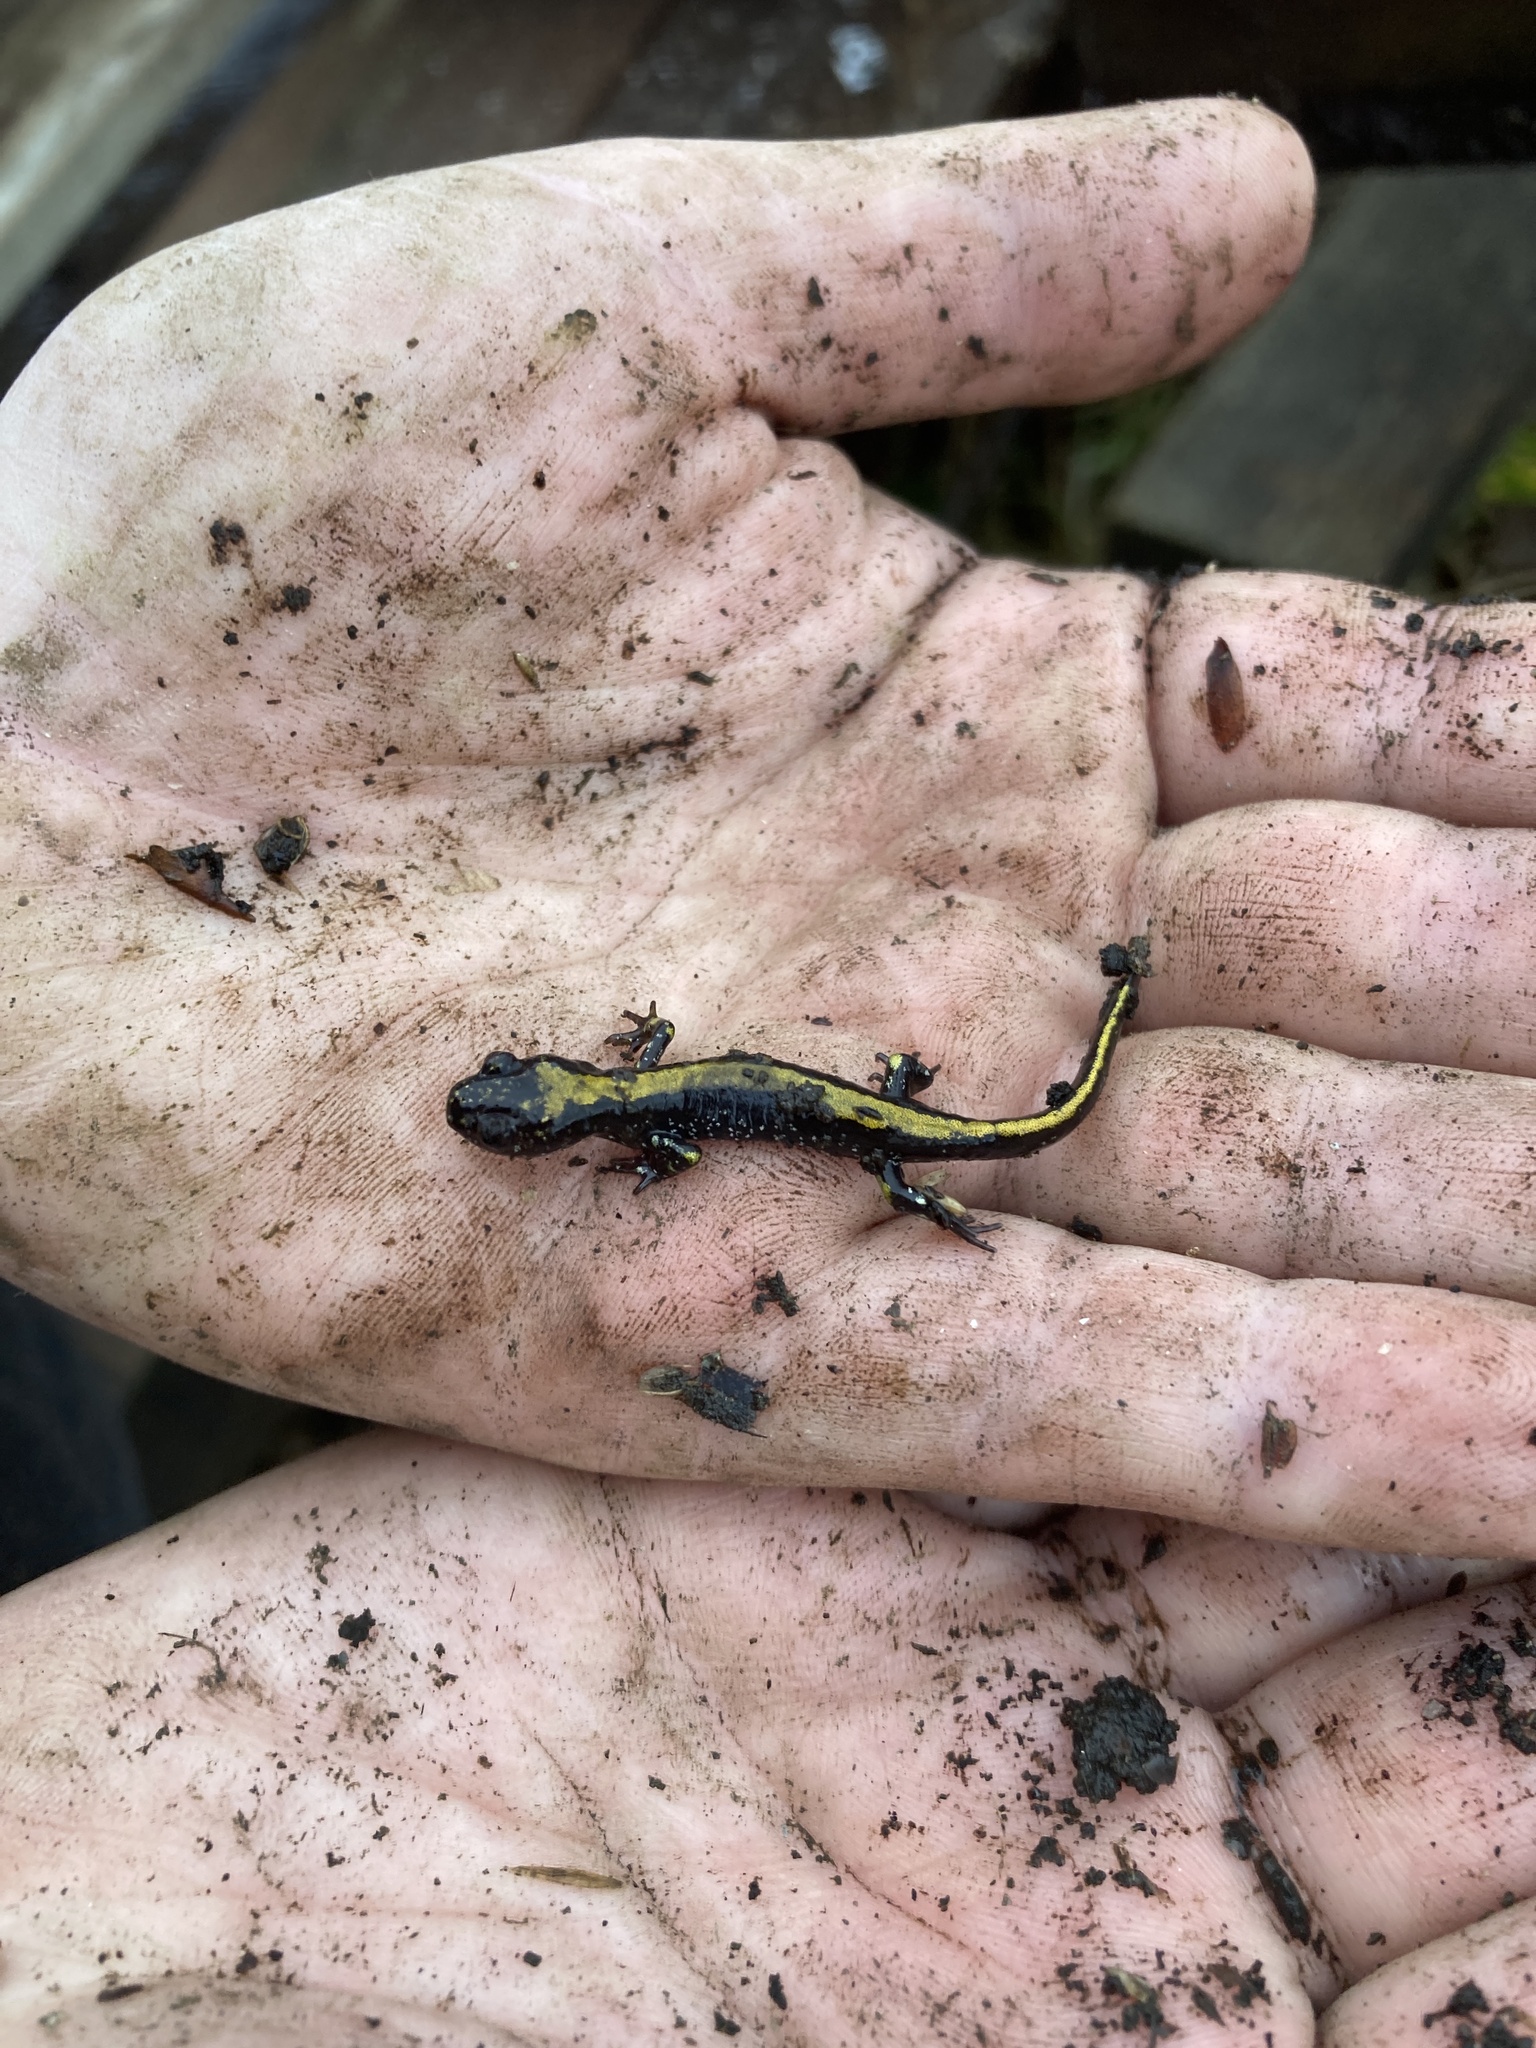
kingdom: Animalia
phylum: Chordata
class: Amphibia
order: Caudata
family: Ambystomatidae
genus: Ambystoma
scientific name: Ambystoma macrodactylum
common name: Long-toed salamander
